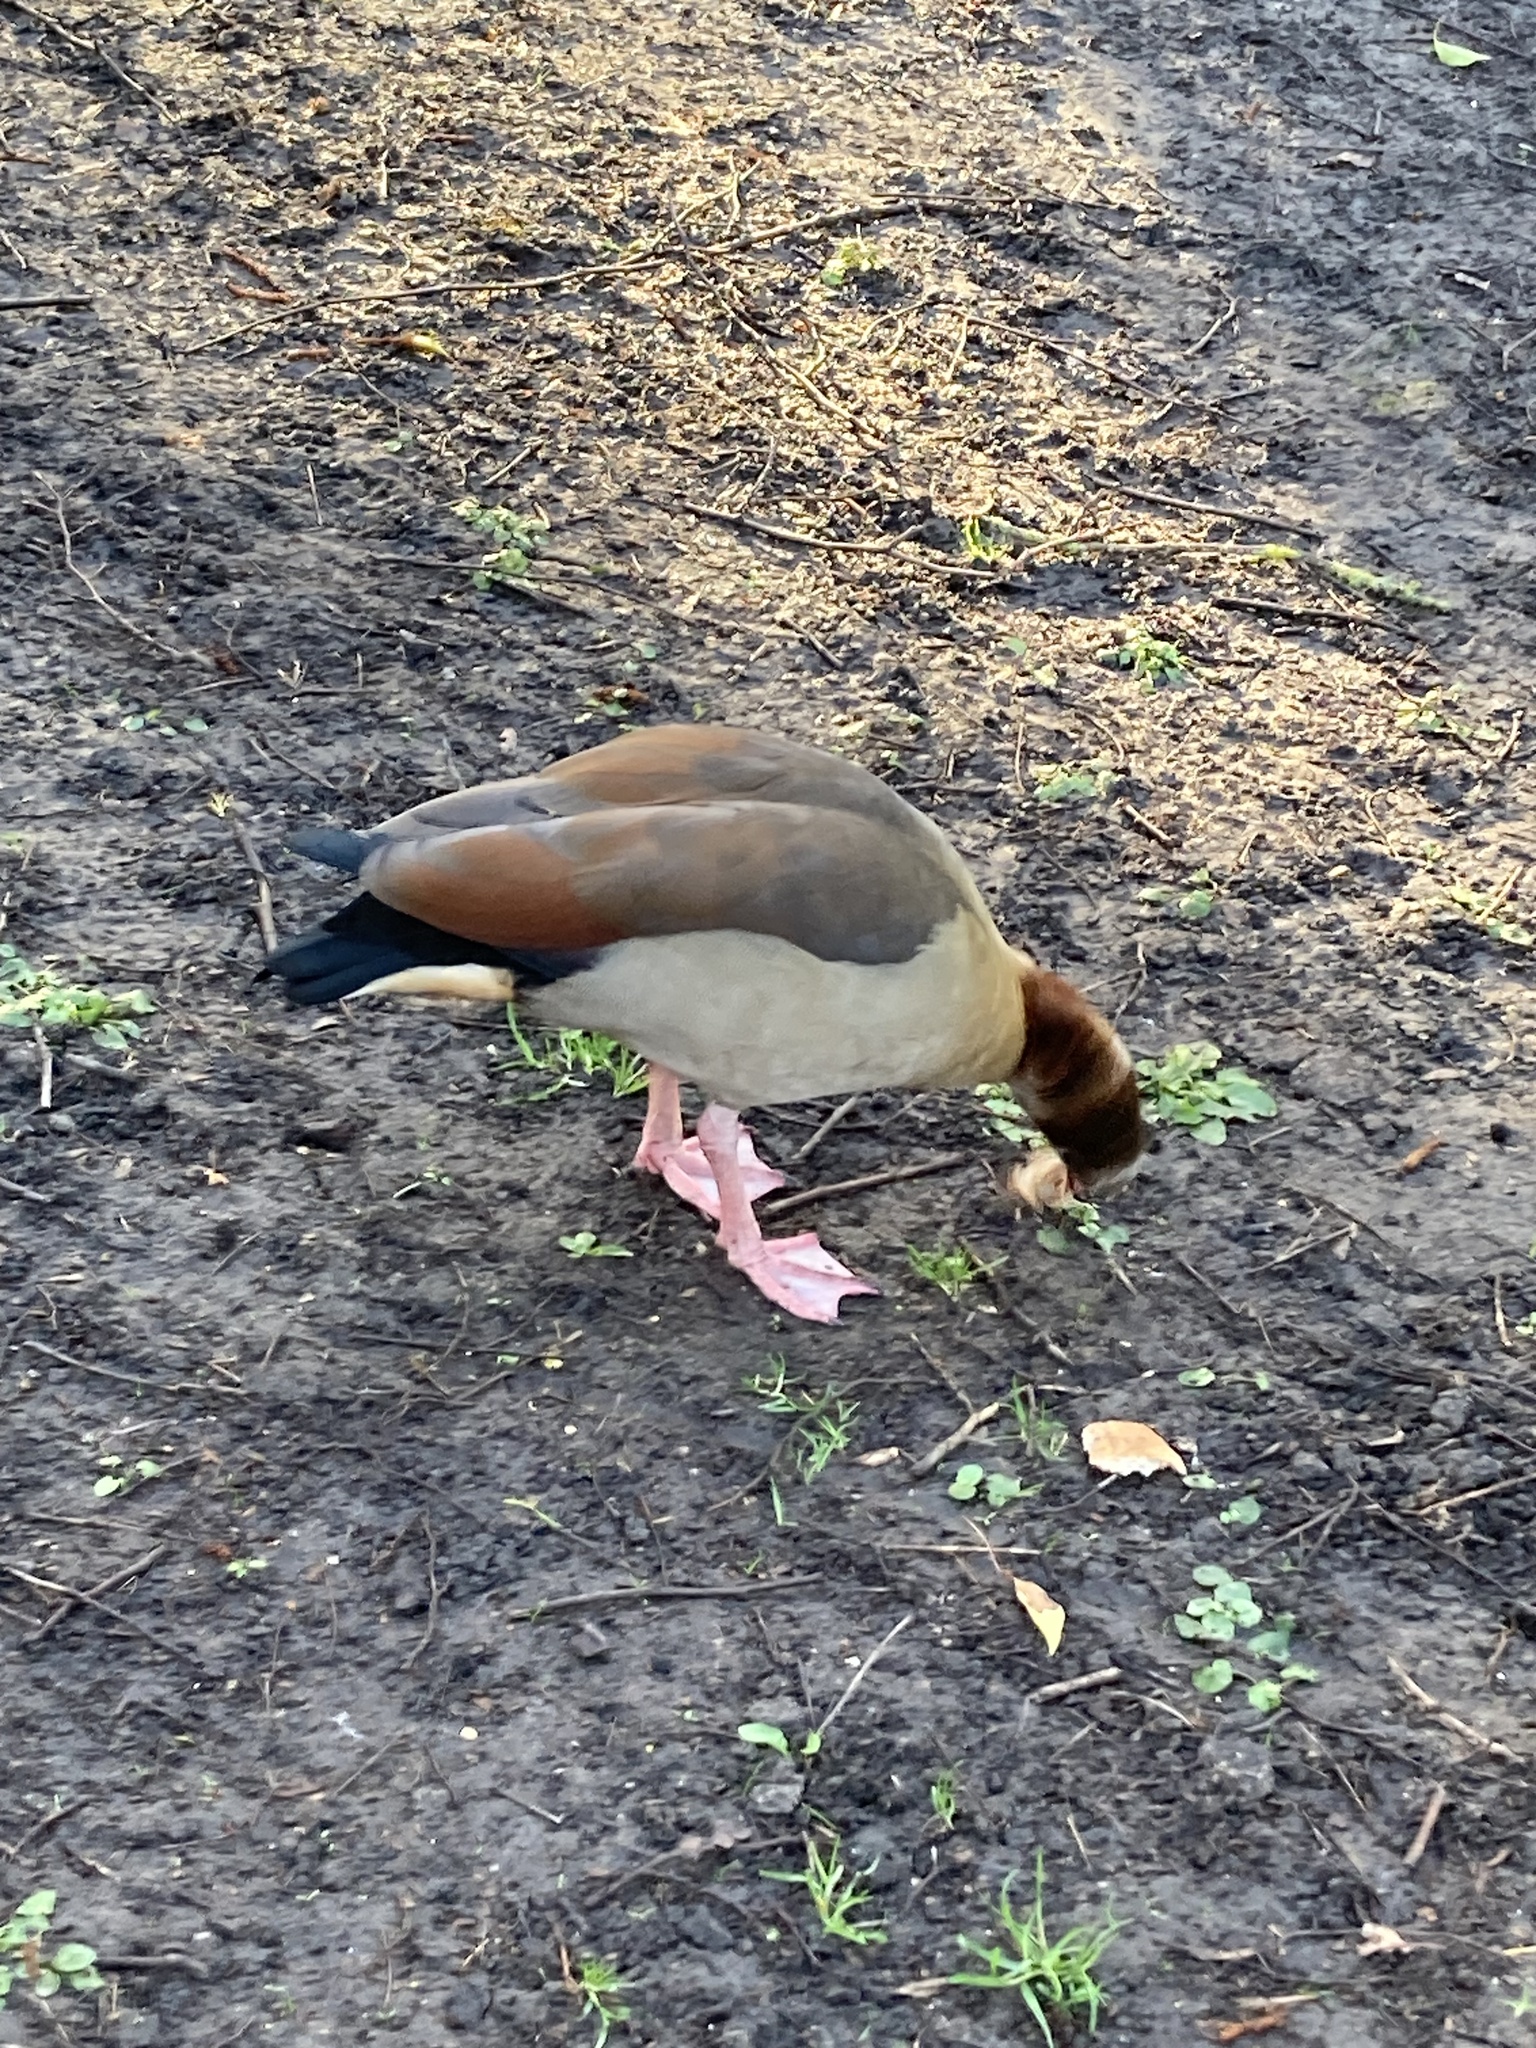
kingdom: Animalia
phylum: Chordata
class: Aves
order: Anseriformes
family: Anatidae
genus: Alopochen
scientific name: Alopochen aegyptiaca
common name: Egyptian goose
